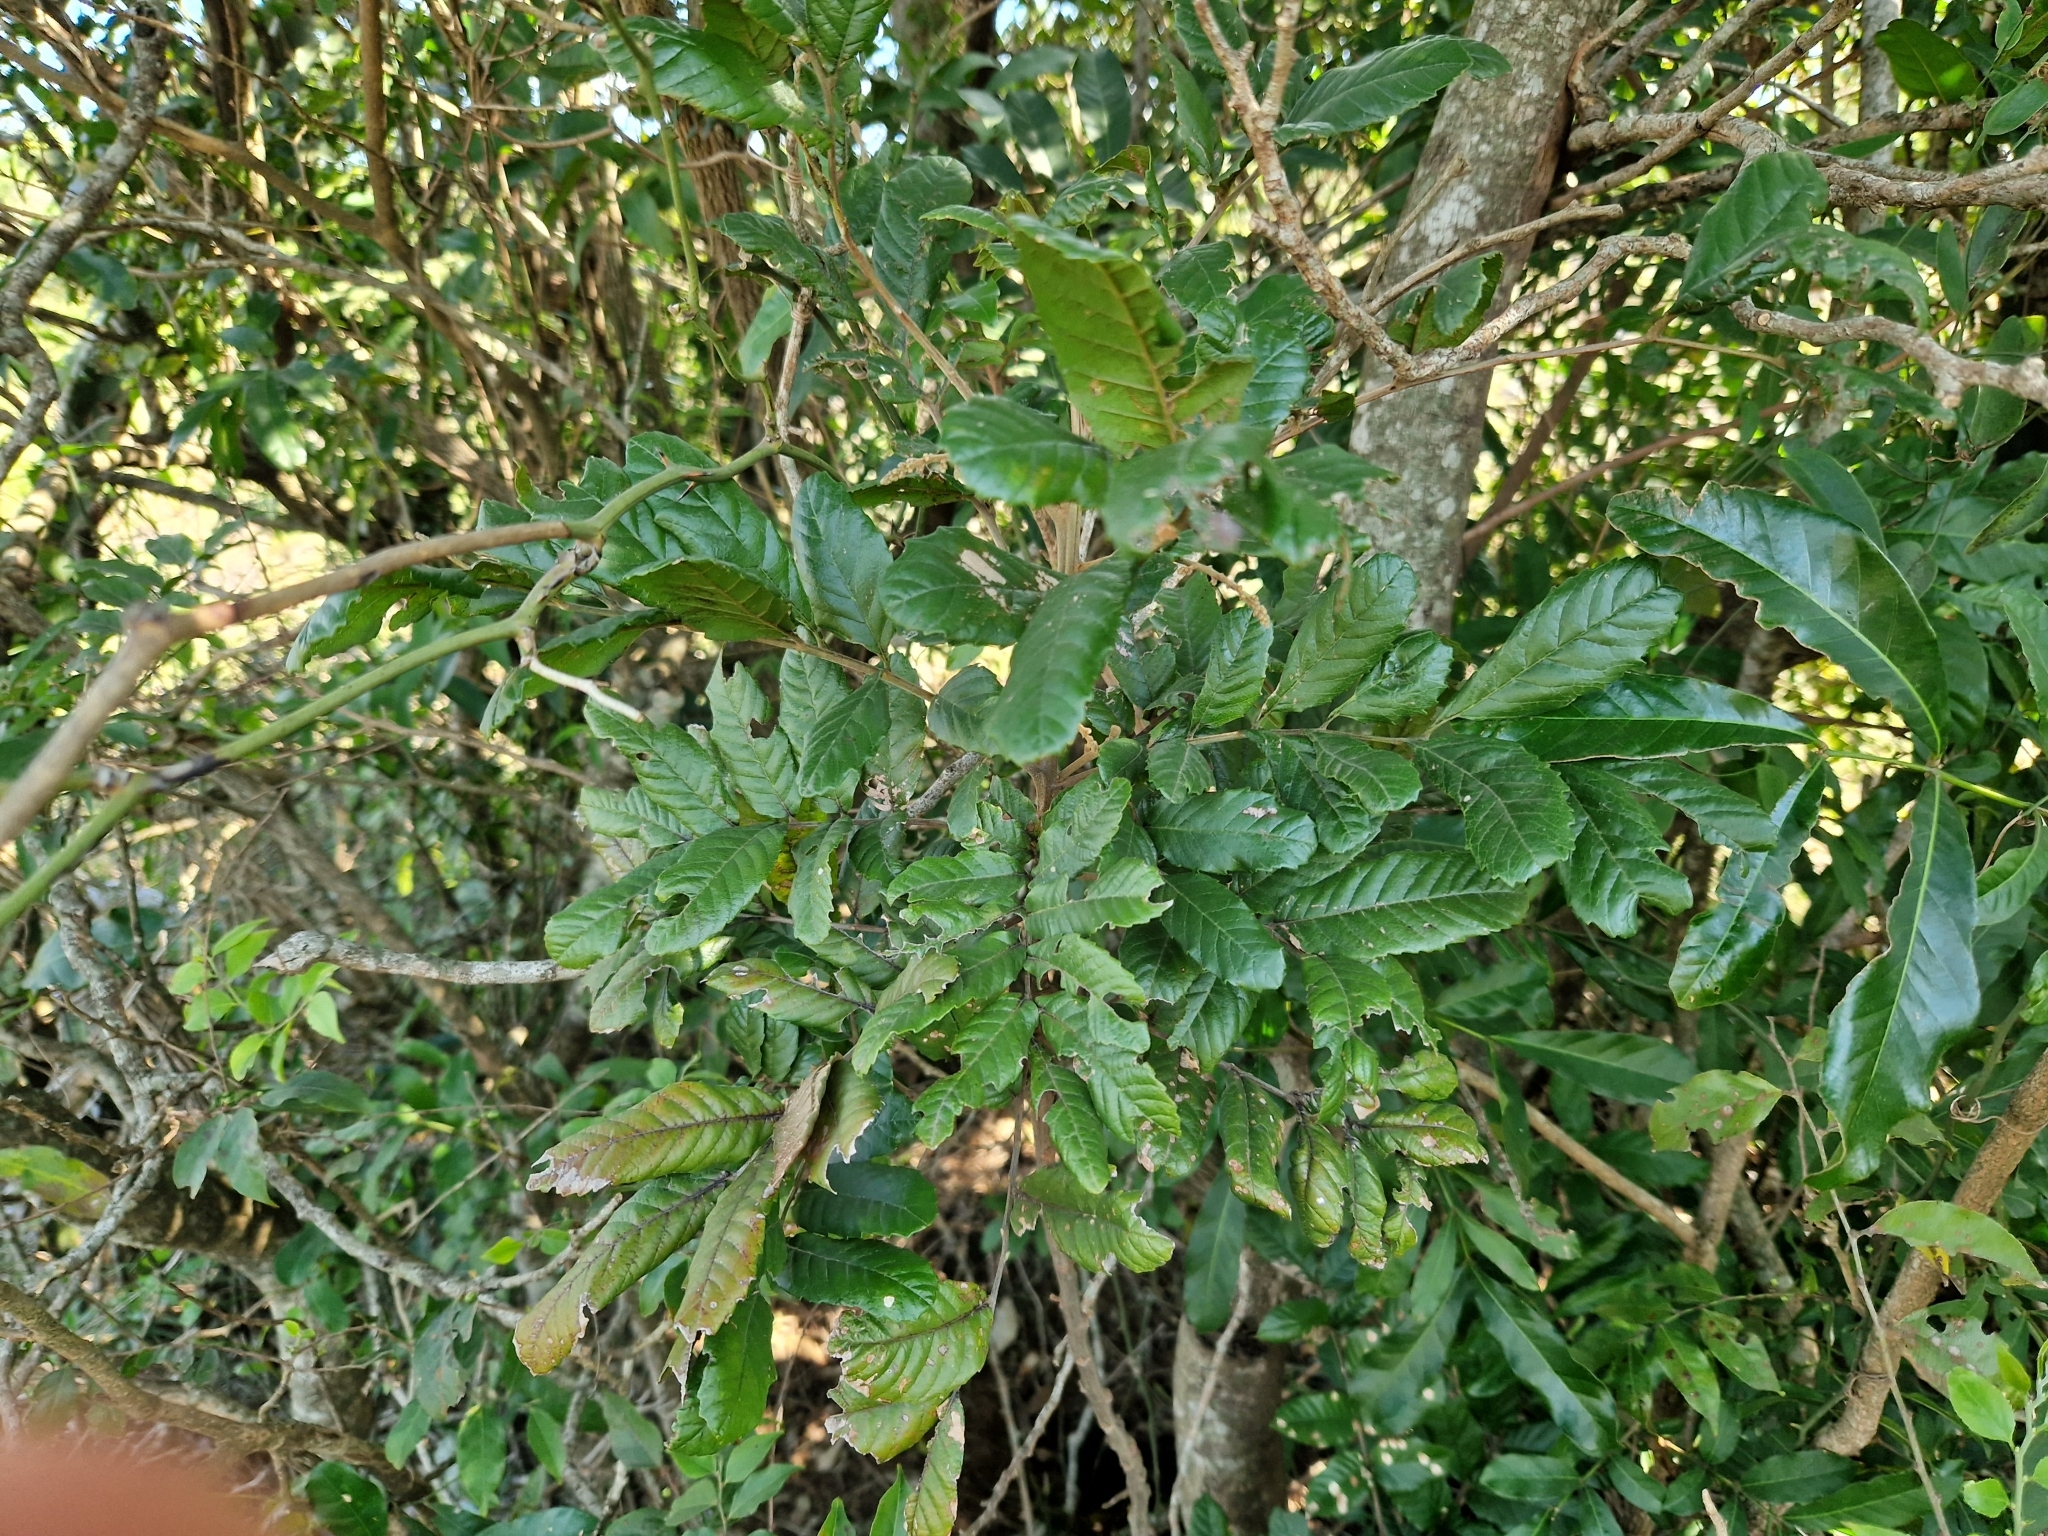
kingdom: Plantae
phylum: Tracheophyta
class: Magnoliopsida
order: Sapindales
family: Sapindaceae
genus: Cupania
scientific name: Cupania vernalis
